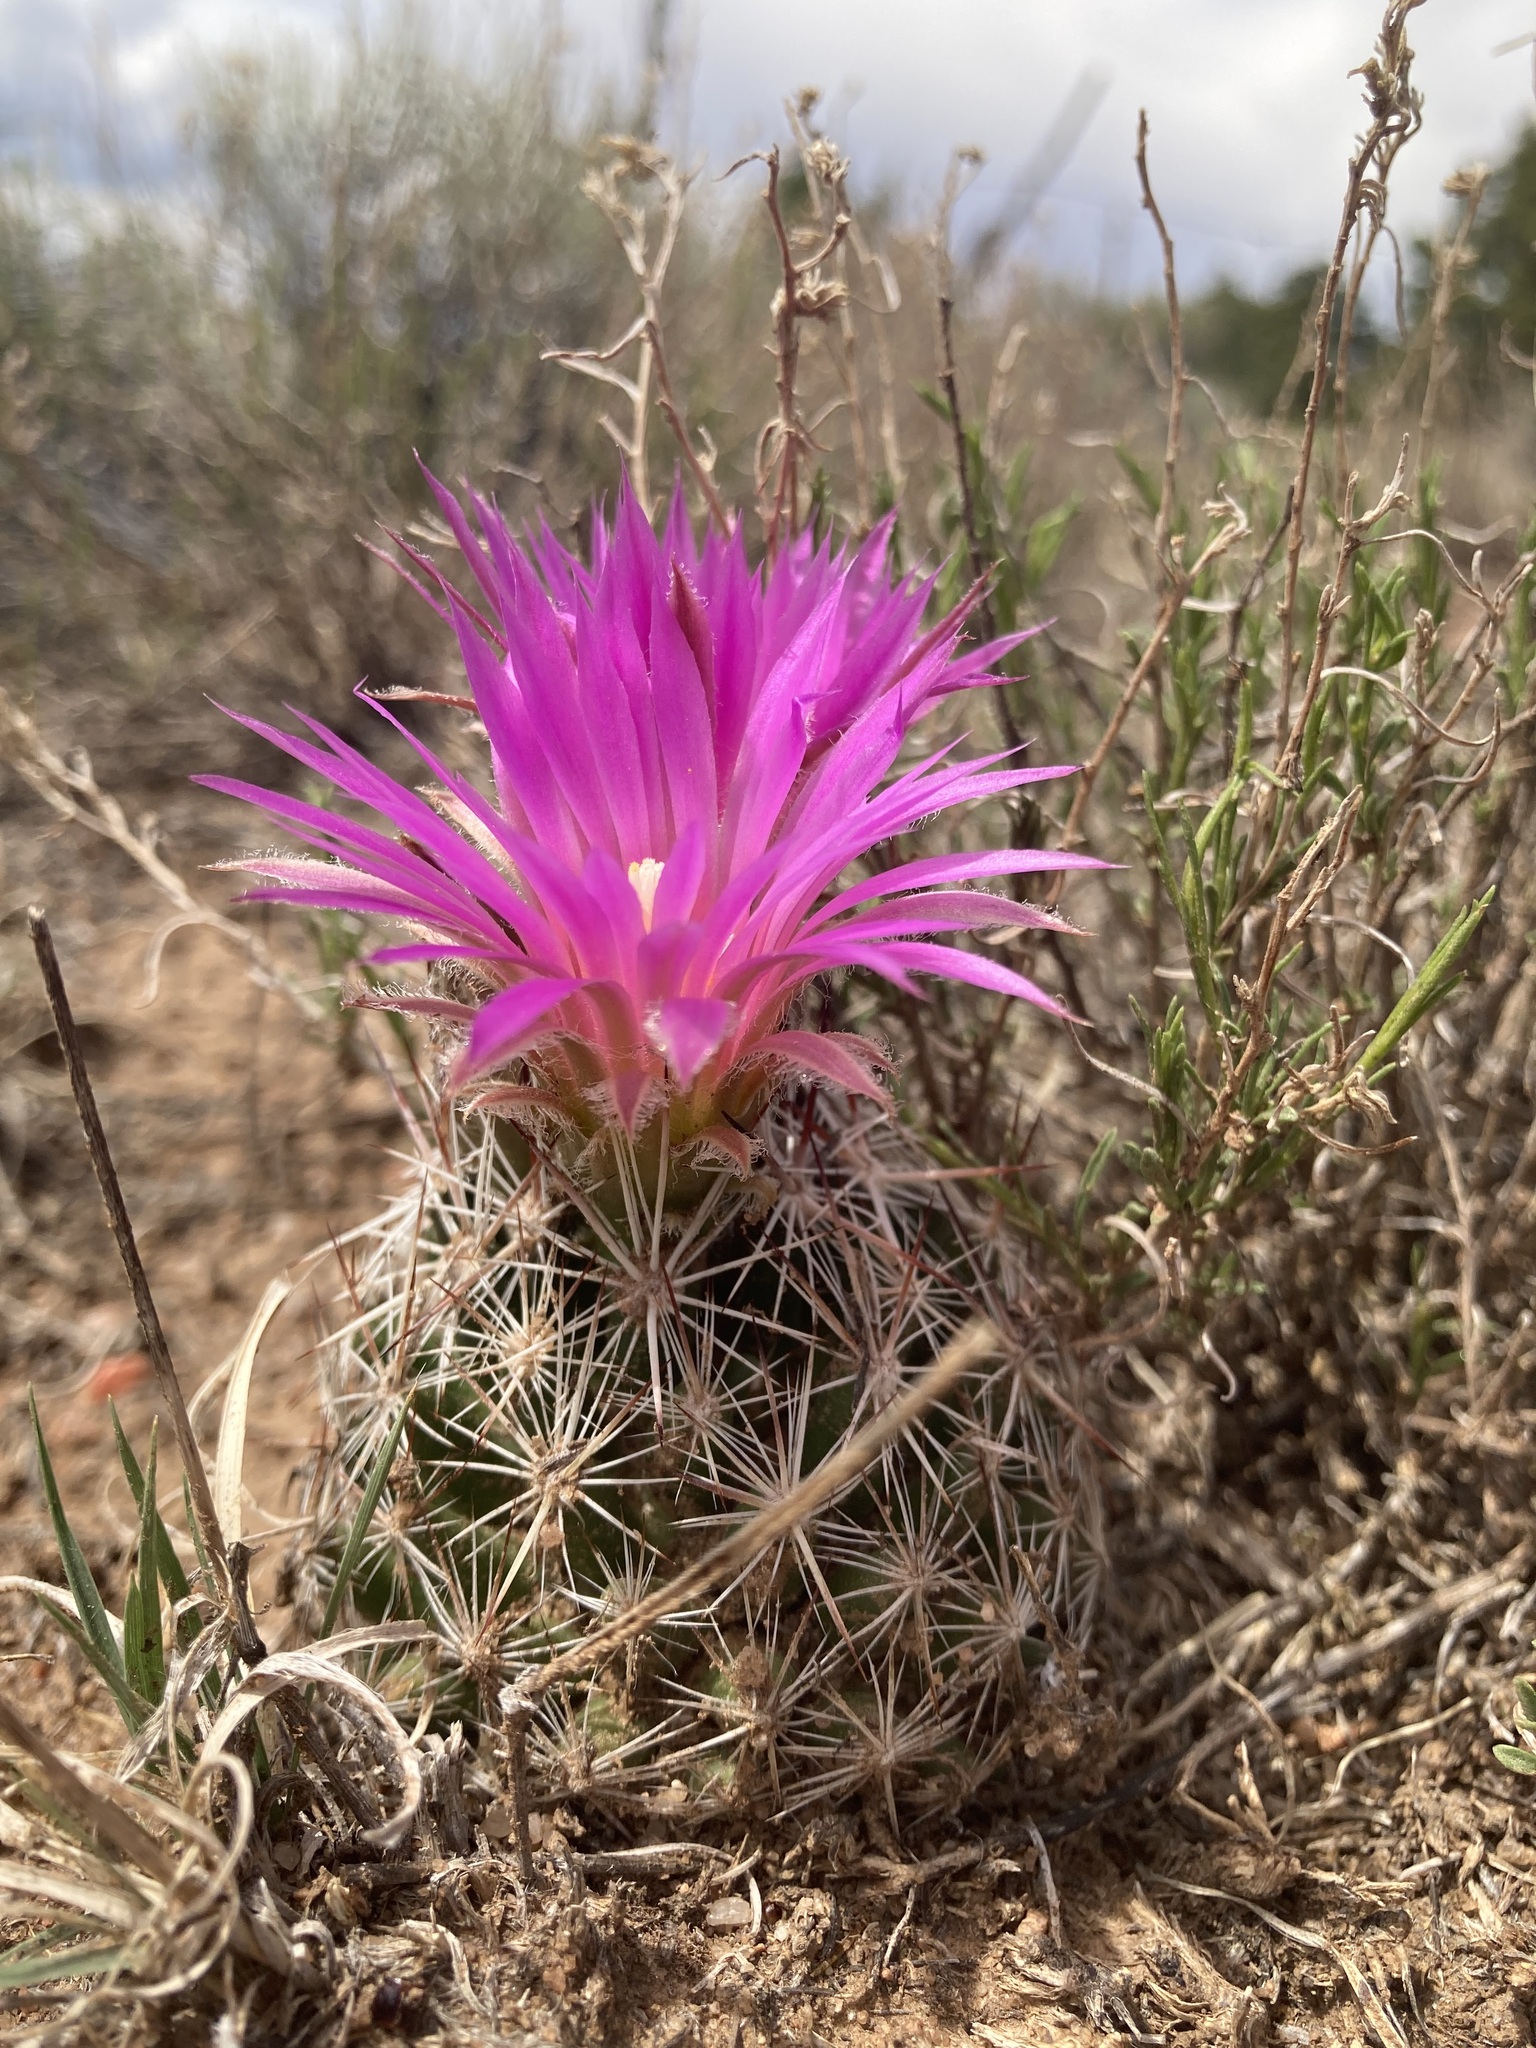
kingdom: Plantae
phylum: Tracheophyta
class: Magnoliopsida
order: Caryophyllales
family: Cactaceae
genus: Pelecyphora
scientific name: Pelecyphora vivipara
